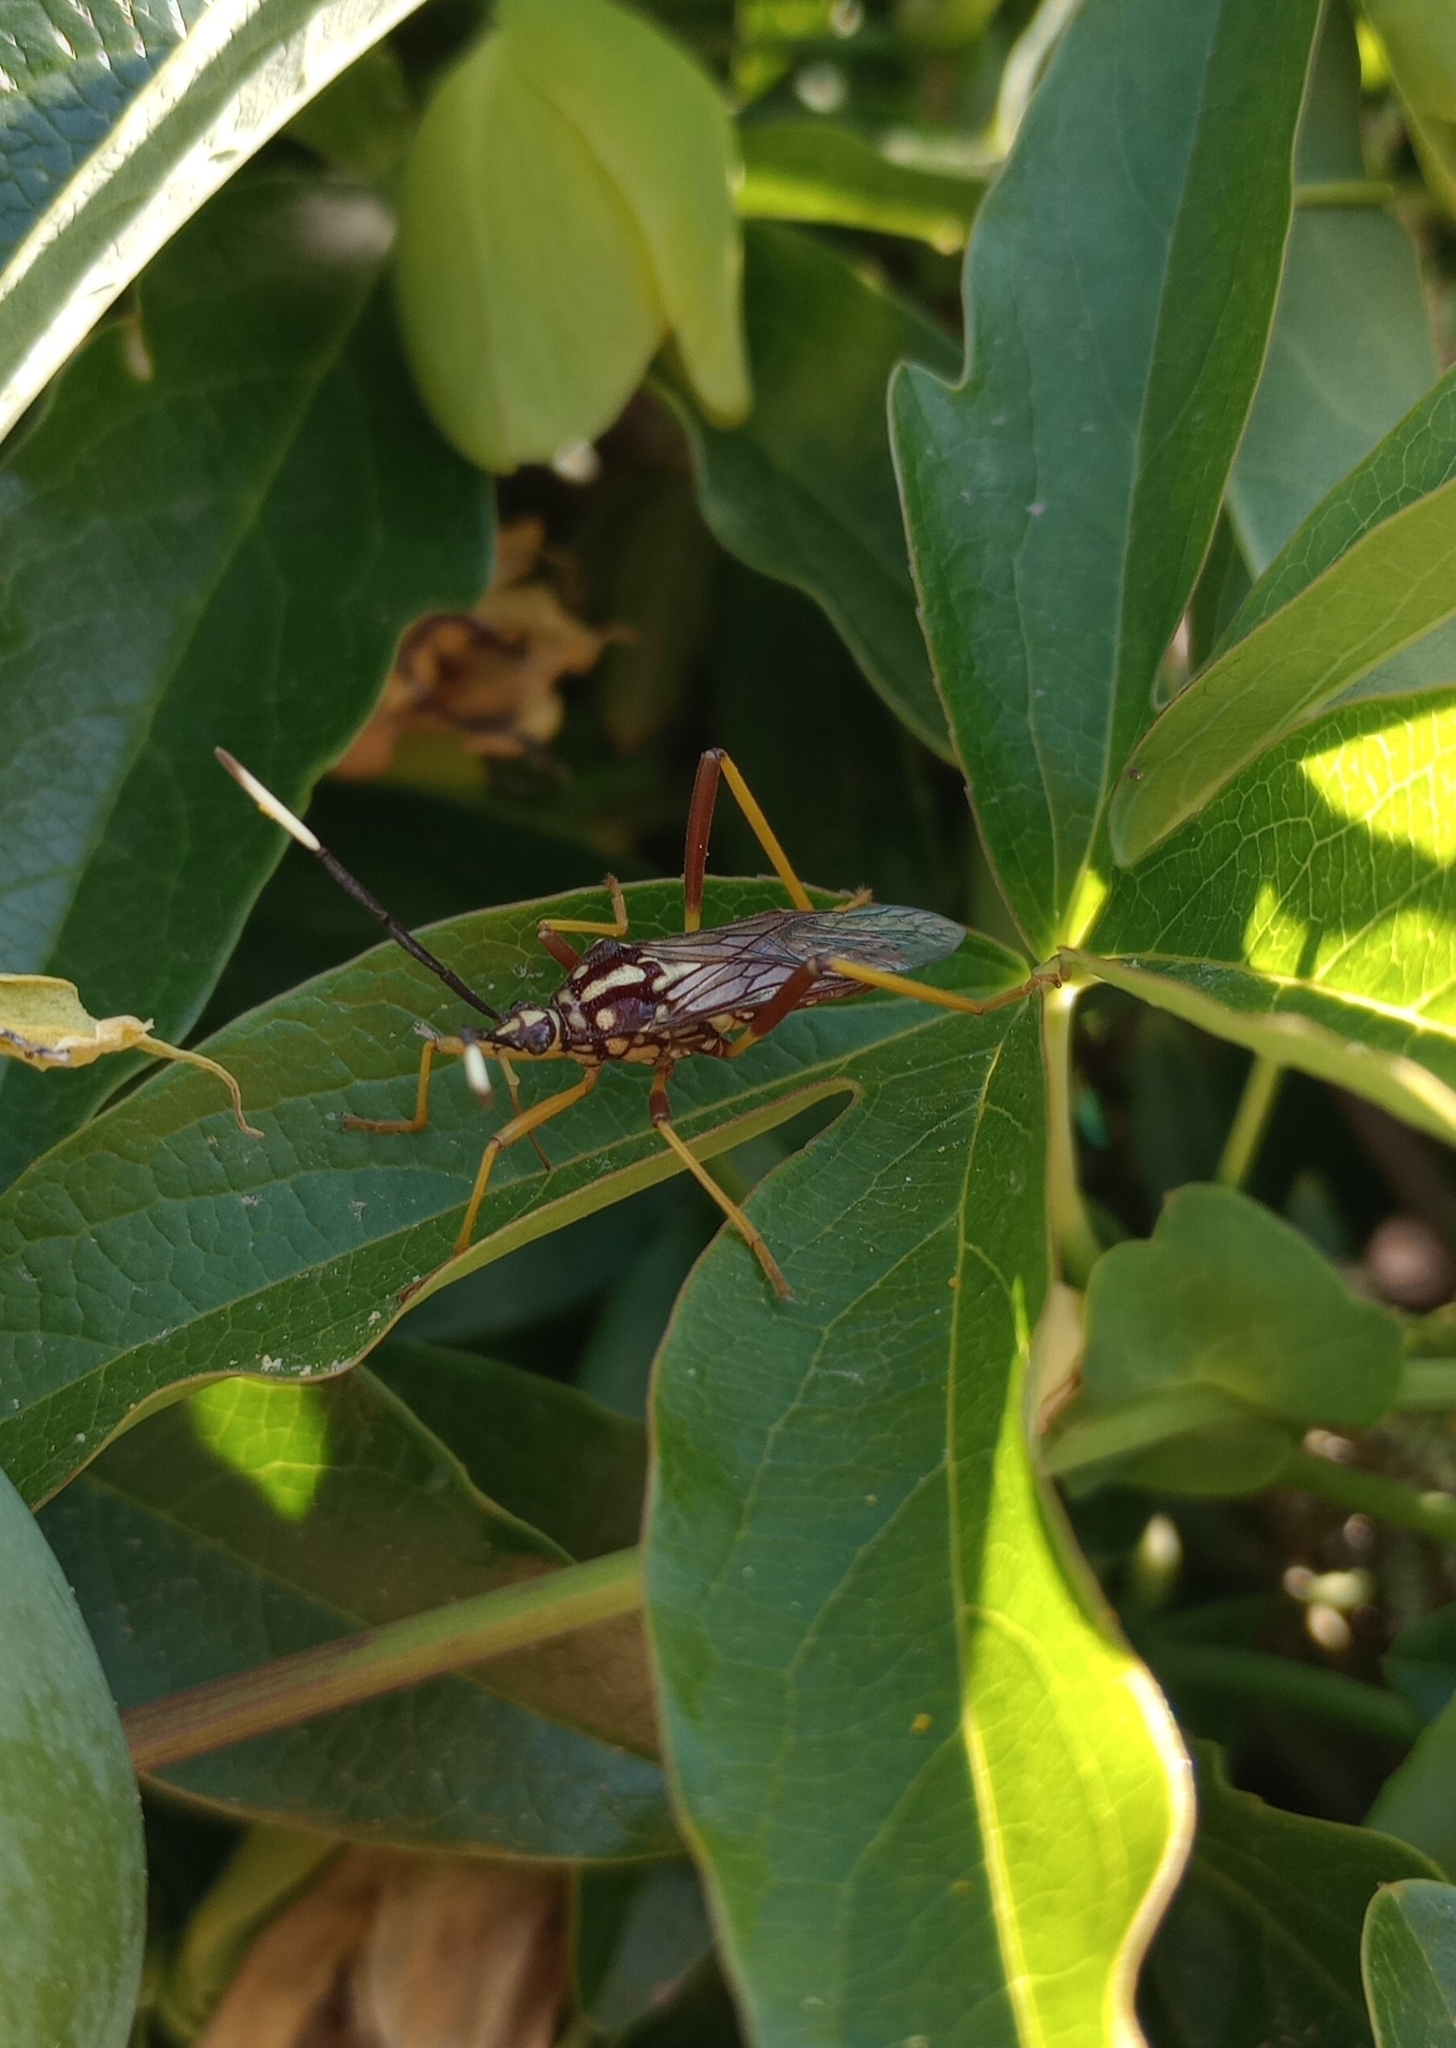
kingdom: Animalia
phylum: Arthropoda
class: Insecta
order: Hemiptera
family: Coreidae
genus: Holhymenia
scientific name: Holhymenia histrio
